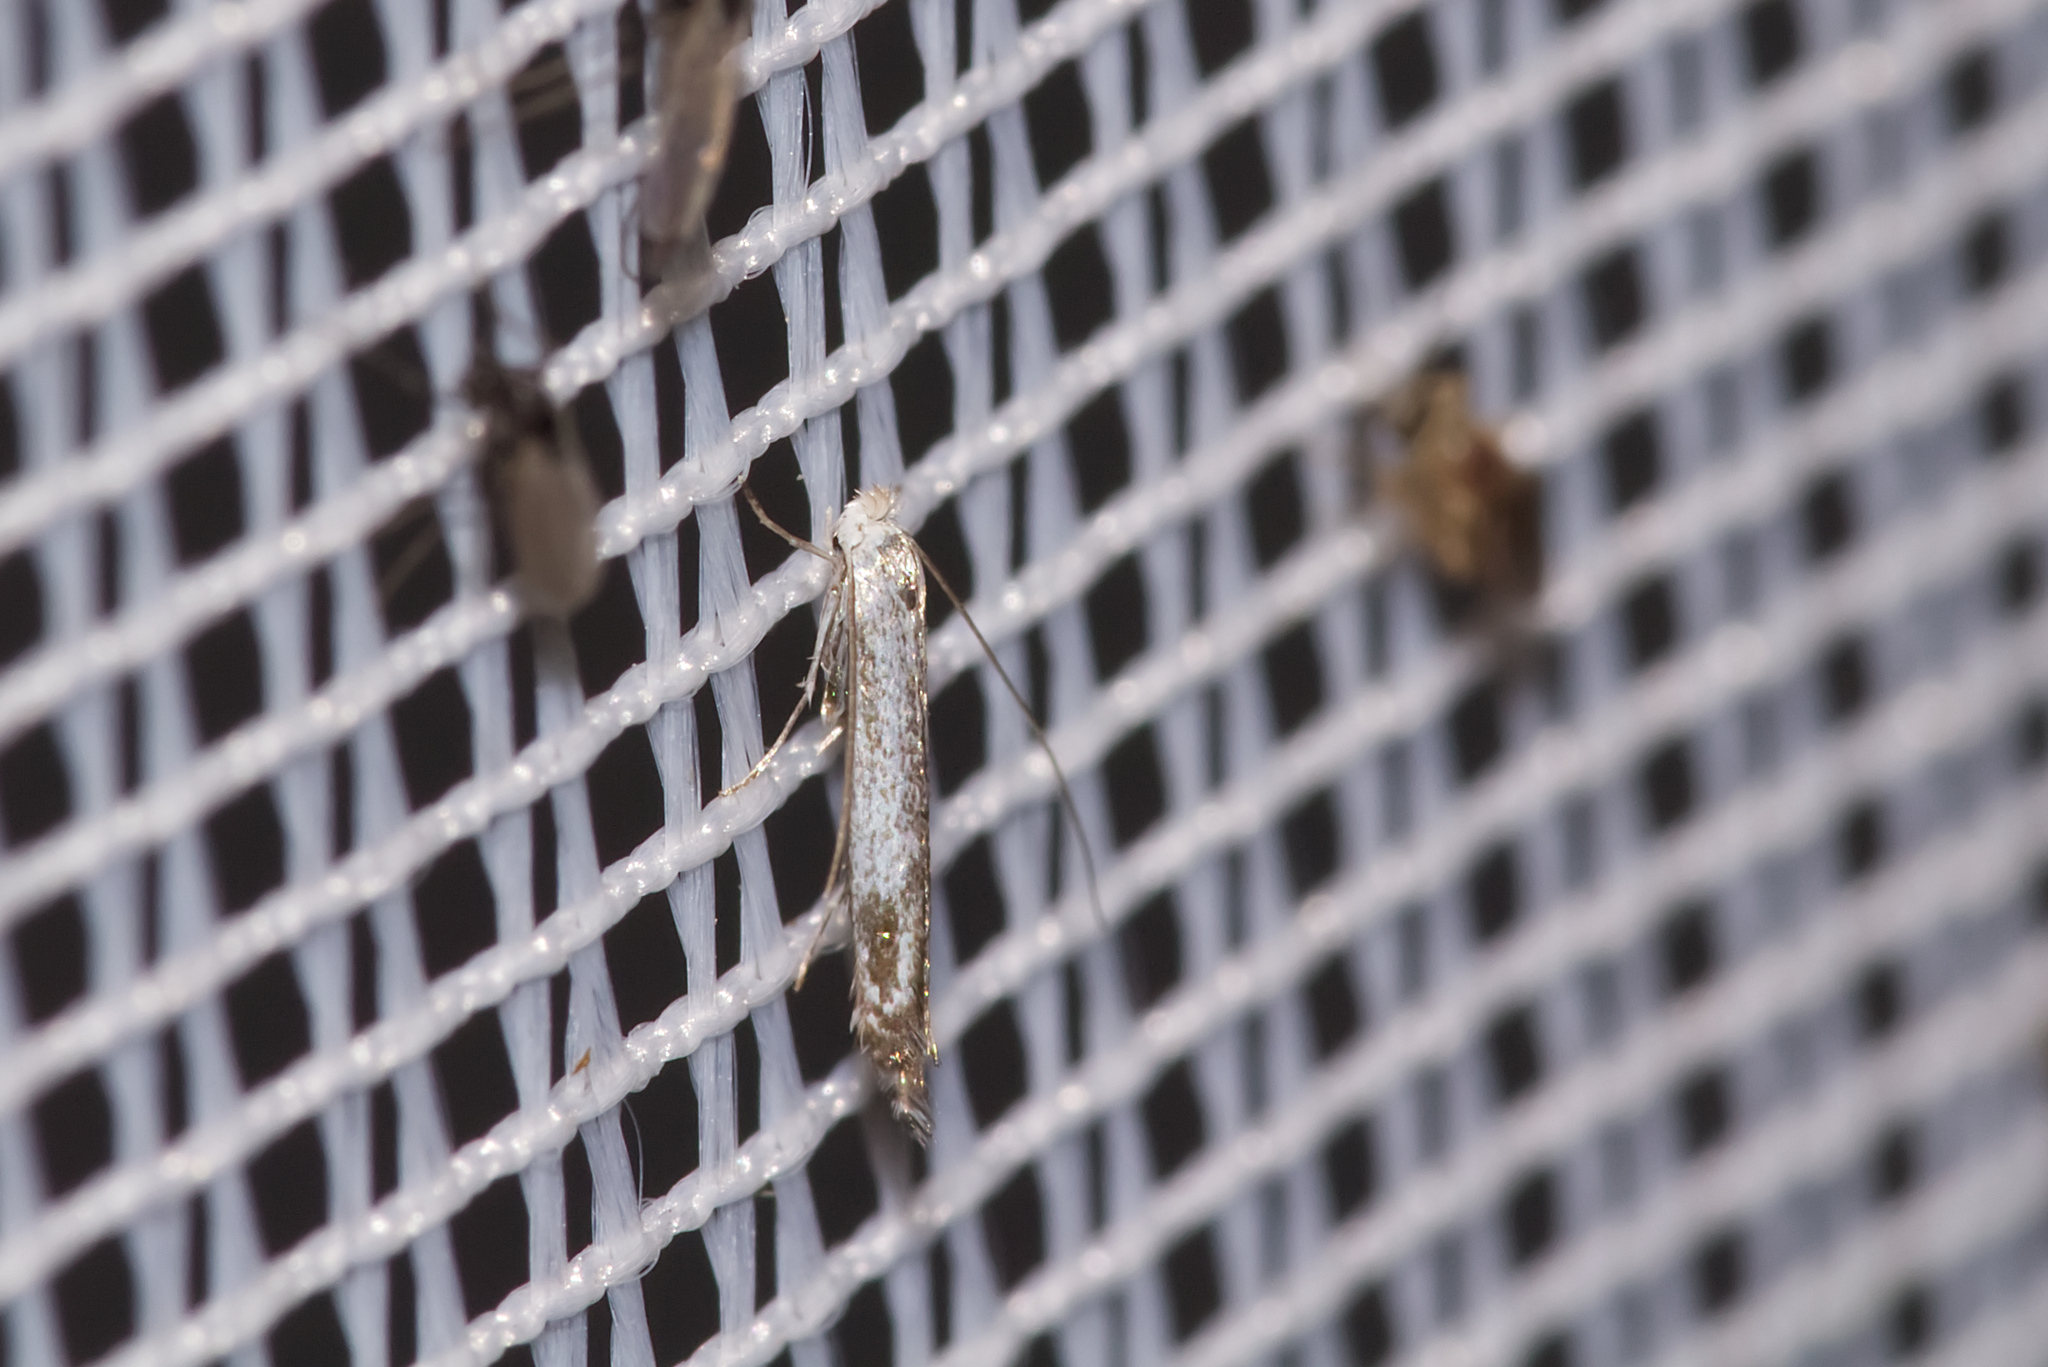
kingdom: Animalia
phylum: Arthropoda
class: Insecta
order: Lepidoptera
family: Lyonetiidae
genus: Lyonetia
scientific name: Lyonetia clerkella
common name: Apple leaf miner
